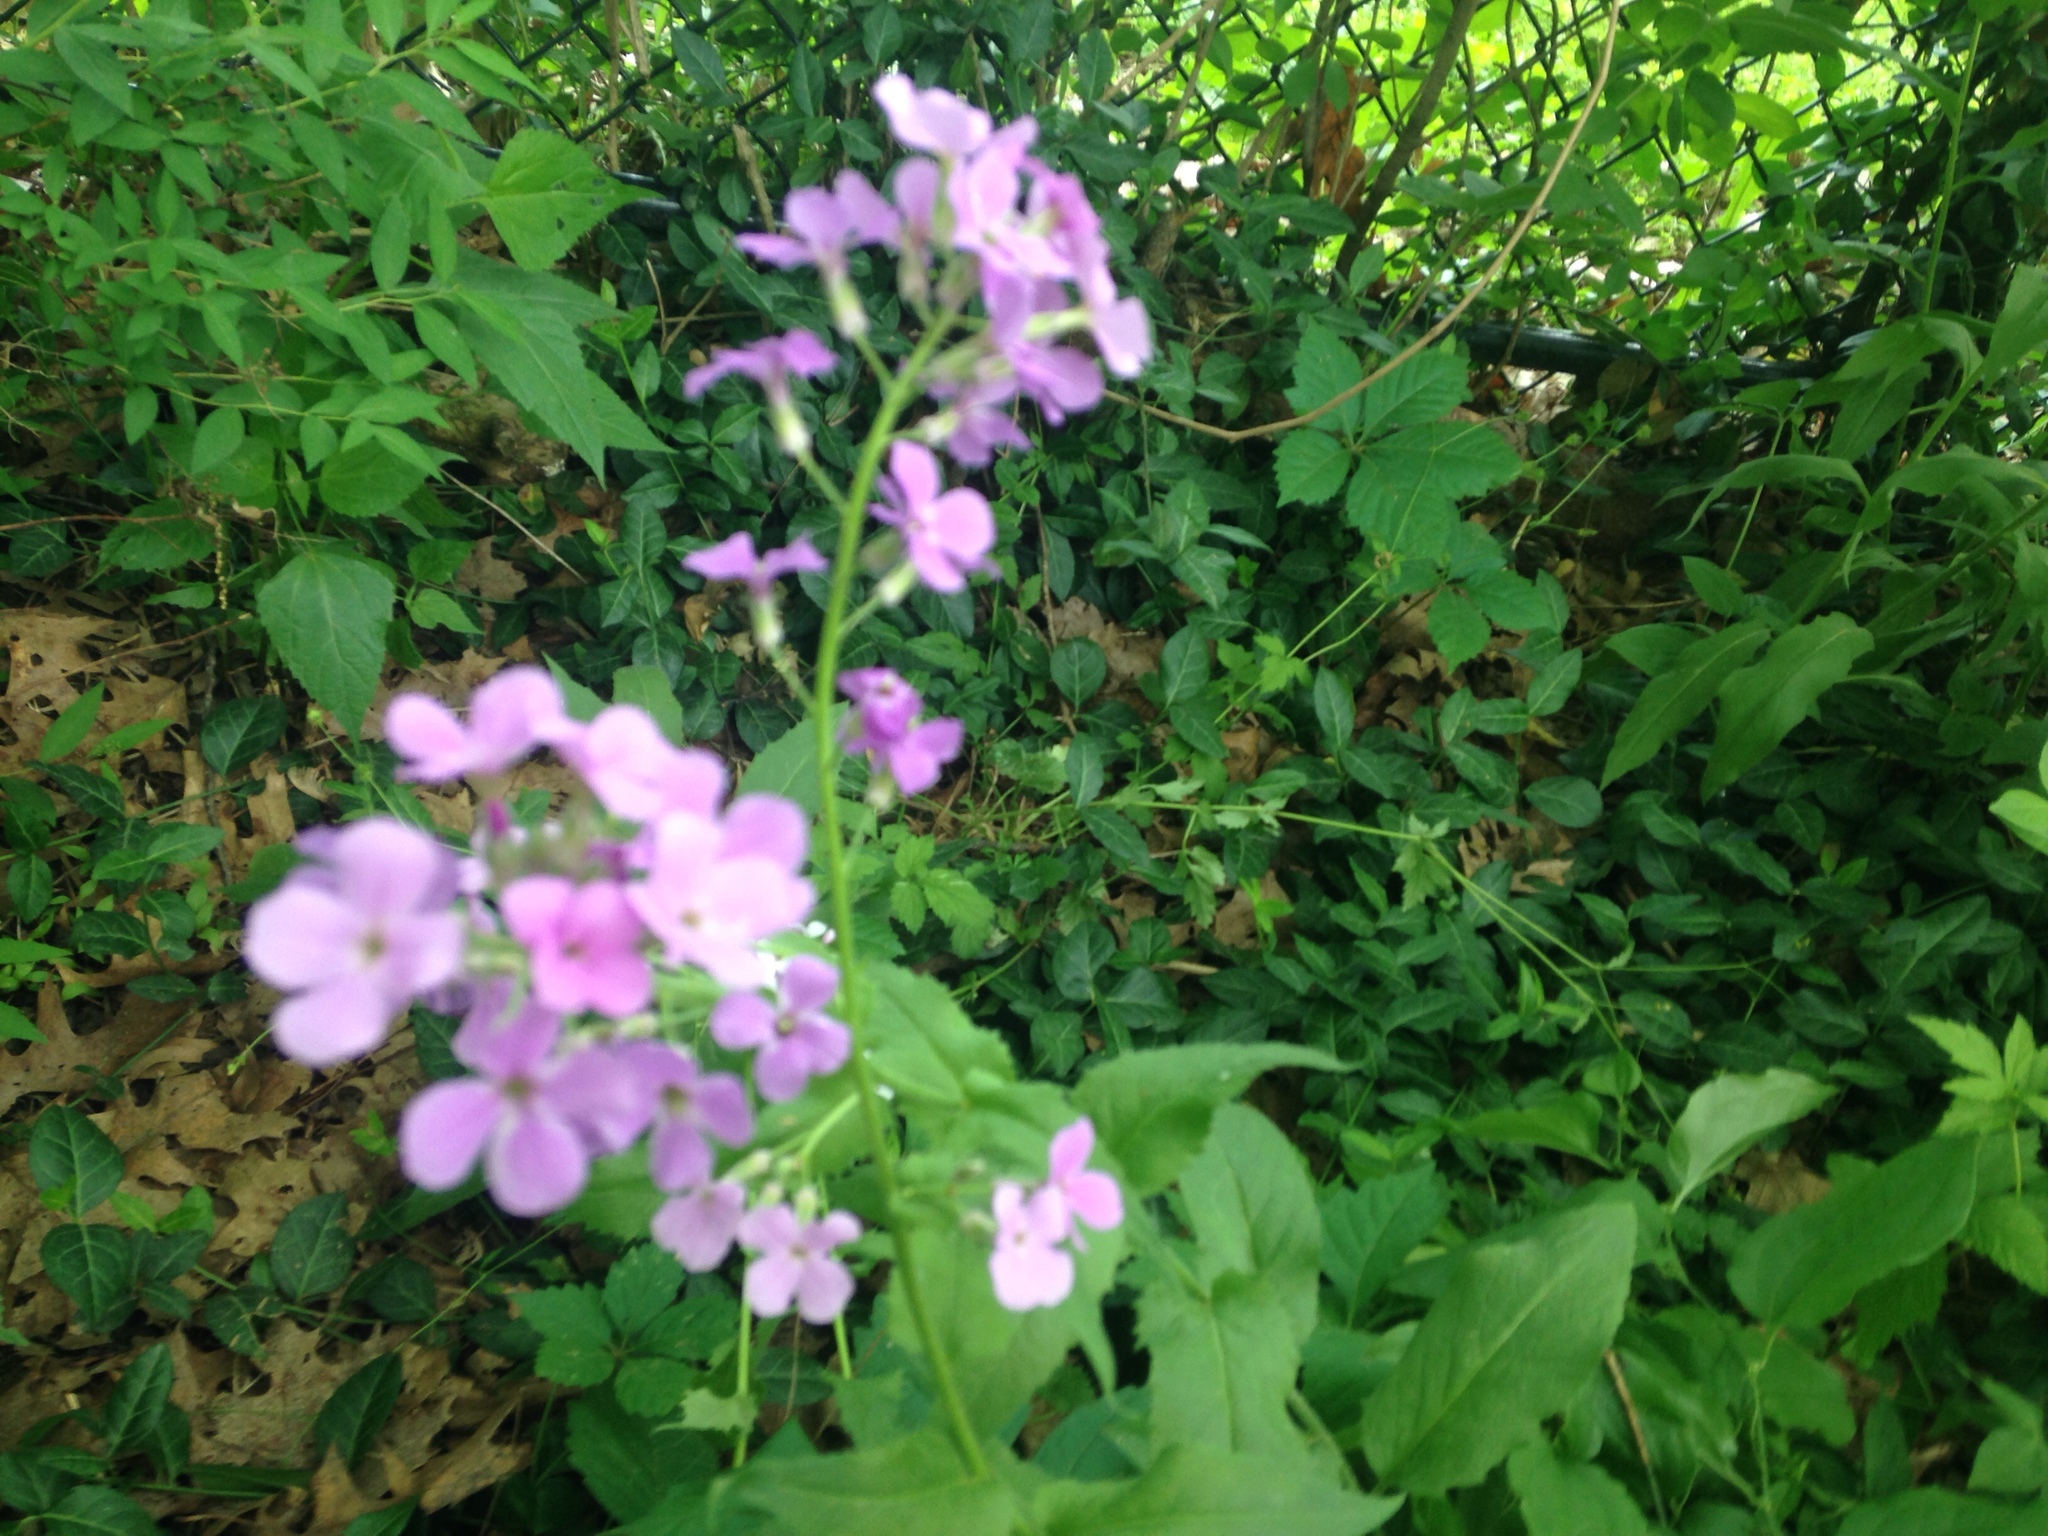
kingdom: Plantae
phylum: Tracheophyta
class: Magnoliopsida
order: Brassicales
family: Brassicaceae
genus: Hesperis
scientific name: Hesperis matronalis
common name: Dame's-violet
